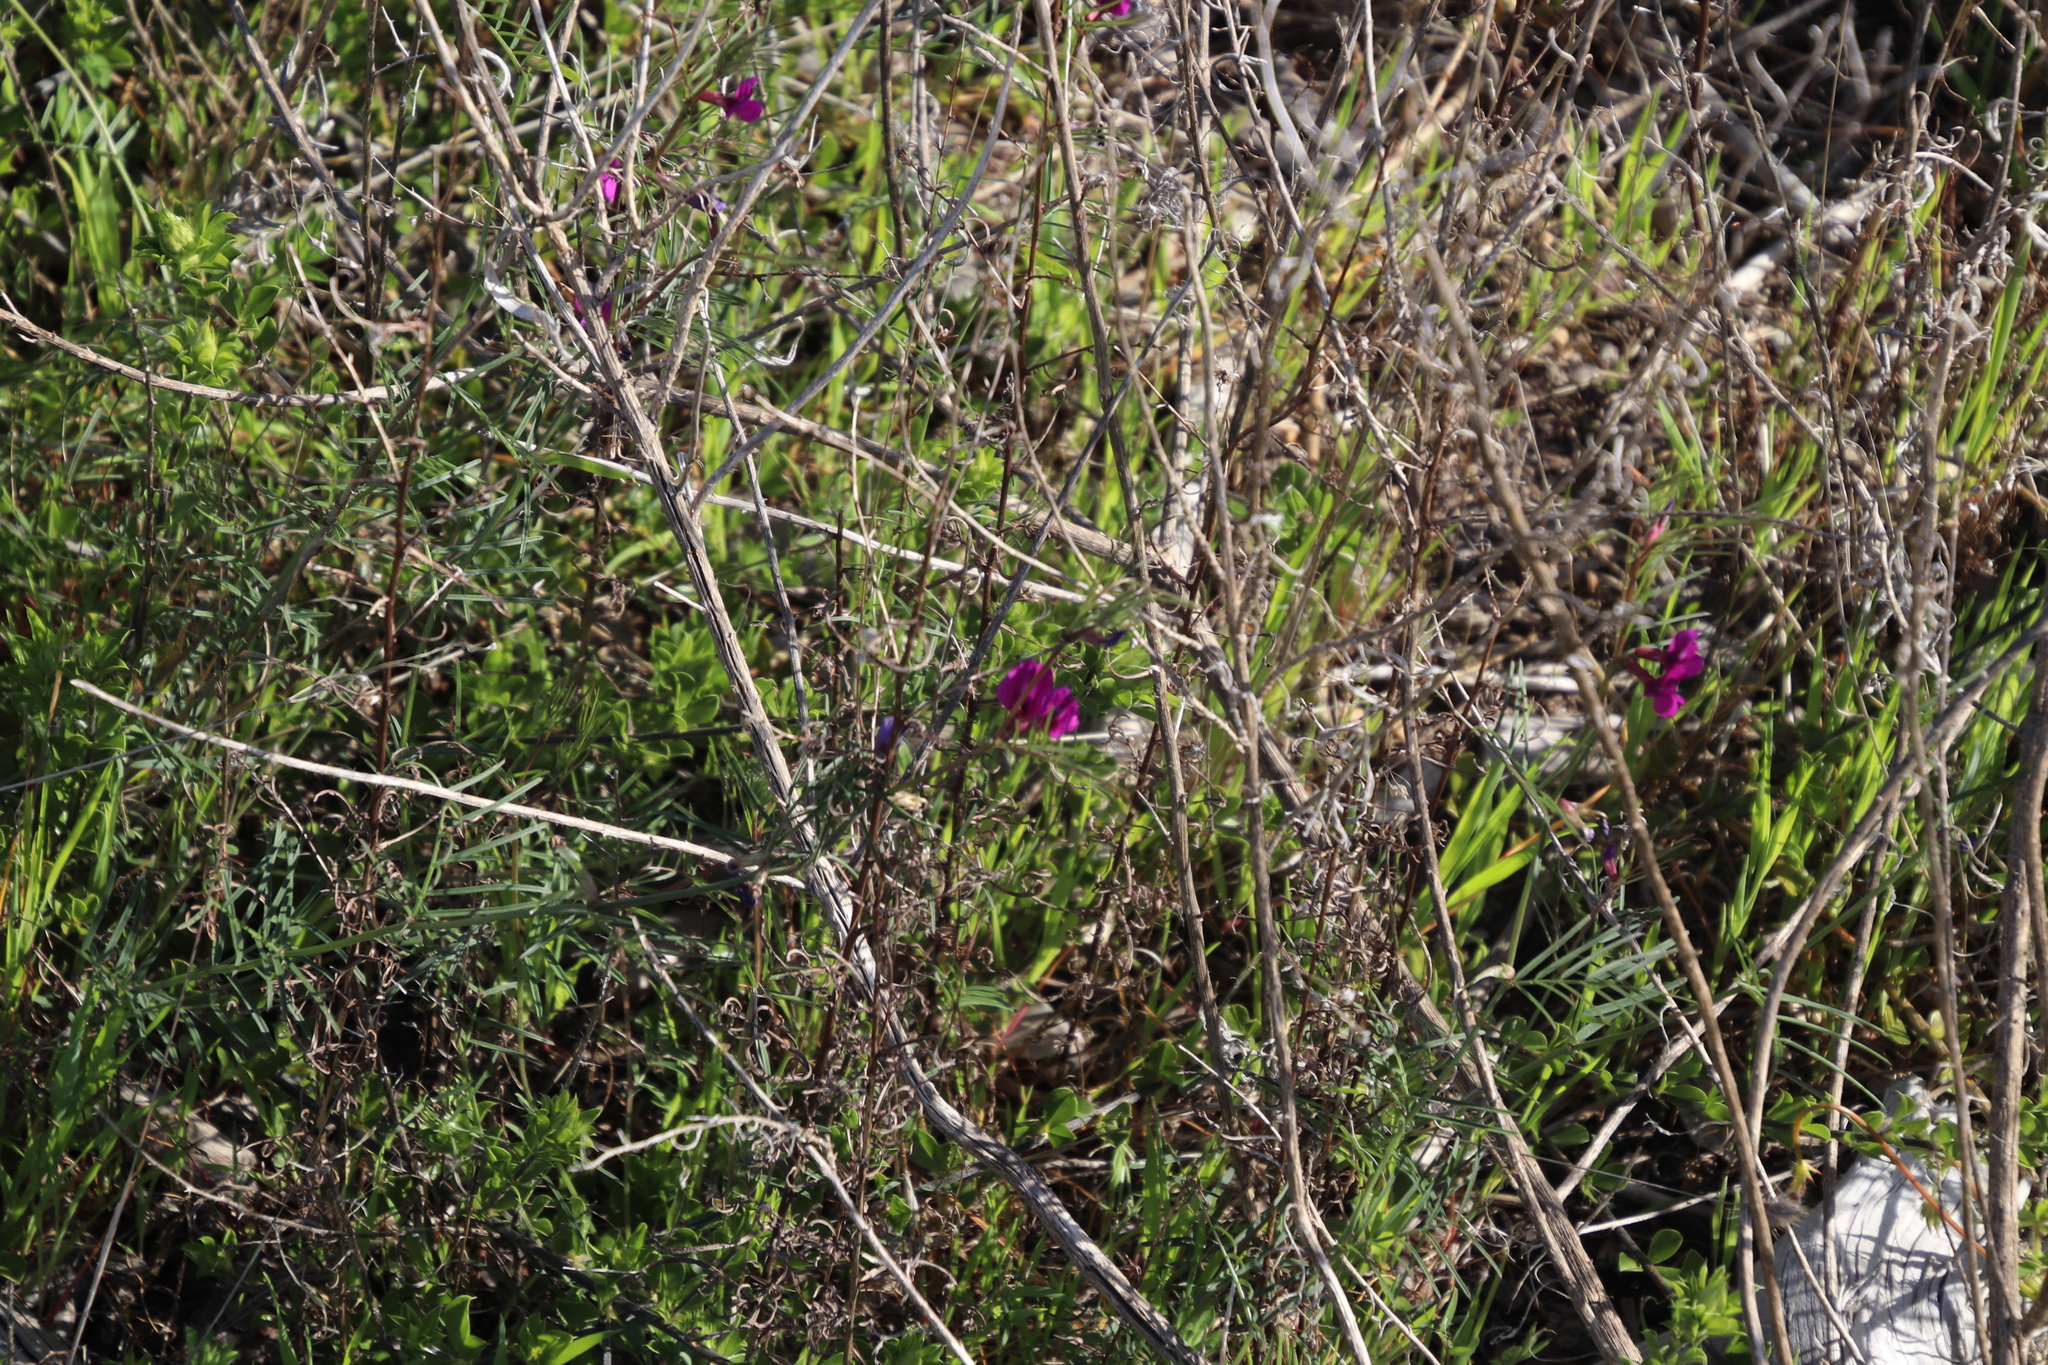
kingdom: Plantae
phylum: Tracheophyta
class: Magnoliopsida
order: Fabales
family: Fabaceae
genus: Vicia
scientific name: Vicia sativa
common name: Garden vetch
